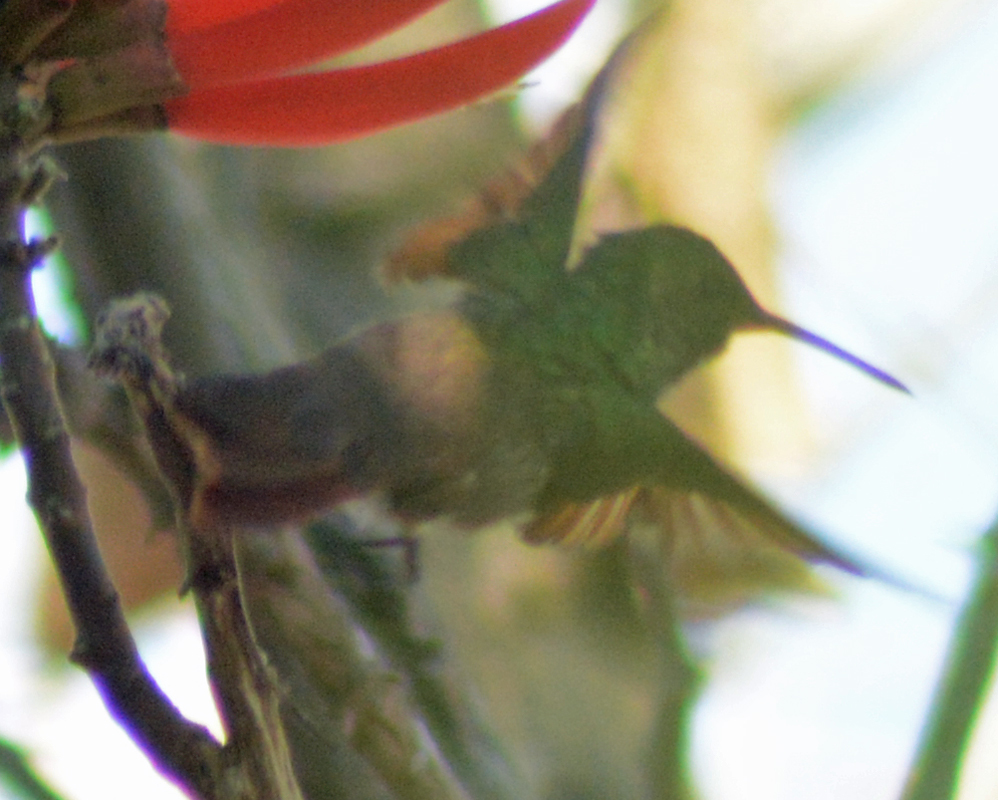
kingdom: Animalia
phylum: Chordata
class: Aves
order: Apodiformes
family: Trochilidae
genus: Saucerottia
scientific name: Saucerottia beryllina
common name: Berylline hummingbird
